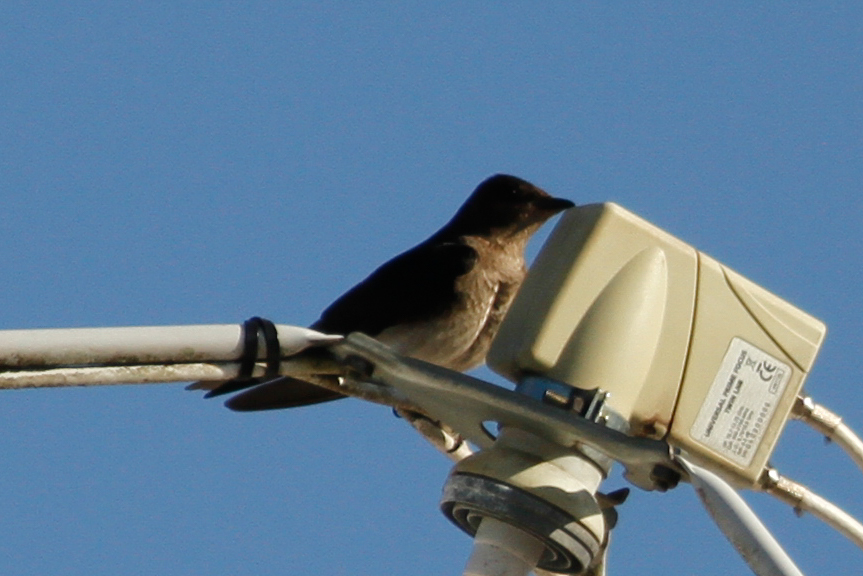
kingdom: Animalia
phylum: Chordata
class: Aves
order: Passeriformes
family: Hirundinidae
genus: Progne
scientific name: Progne chalybea
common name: Grey-breasted martin
